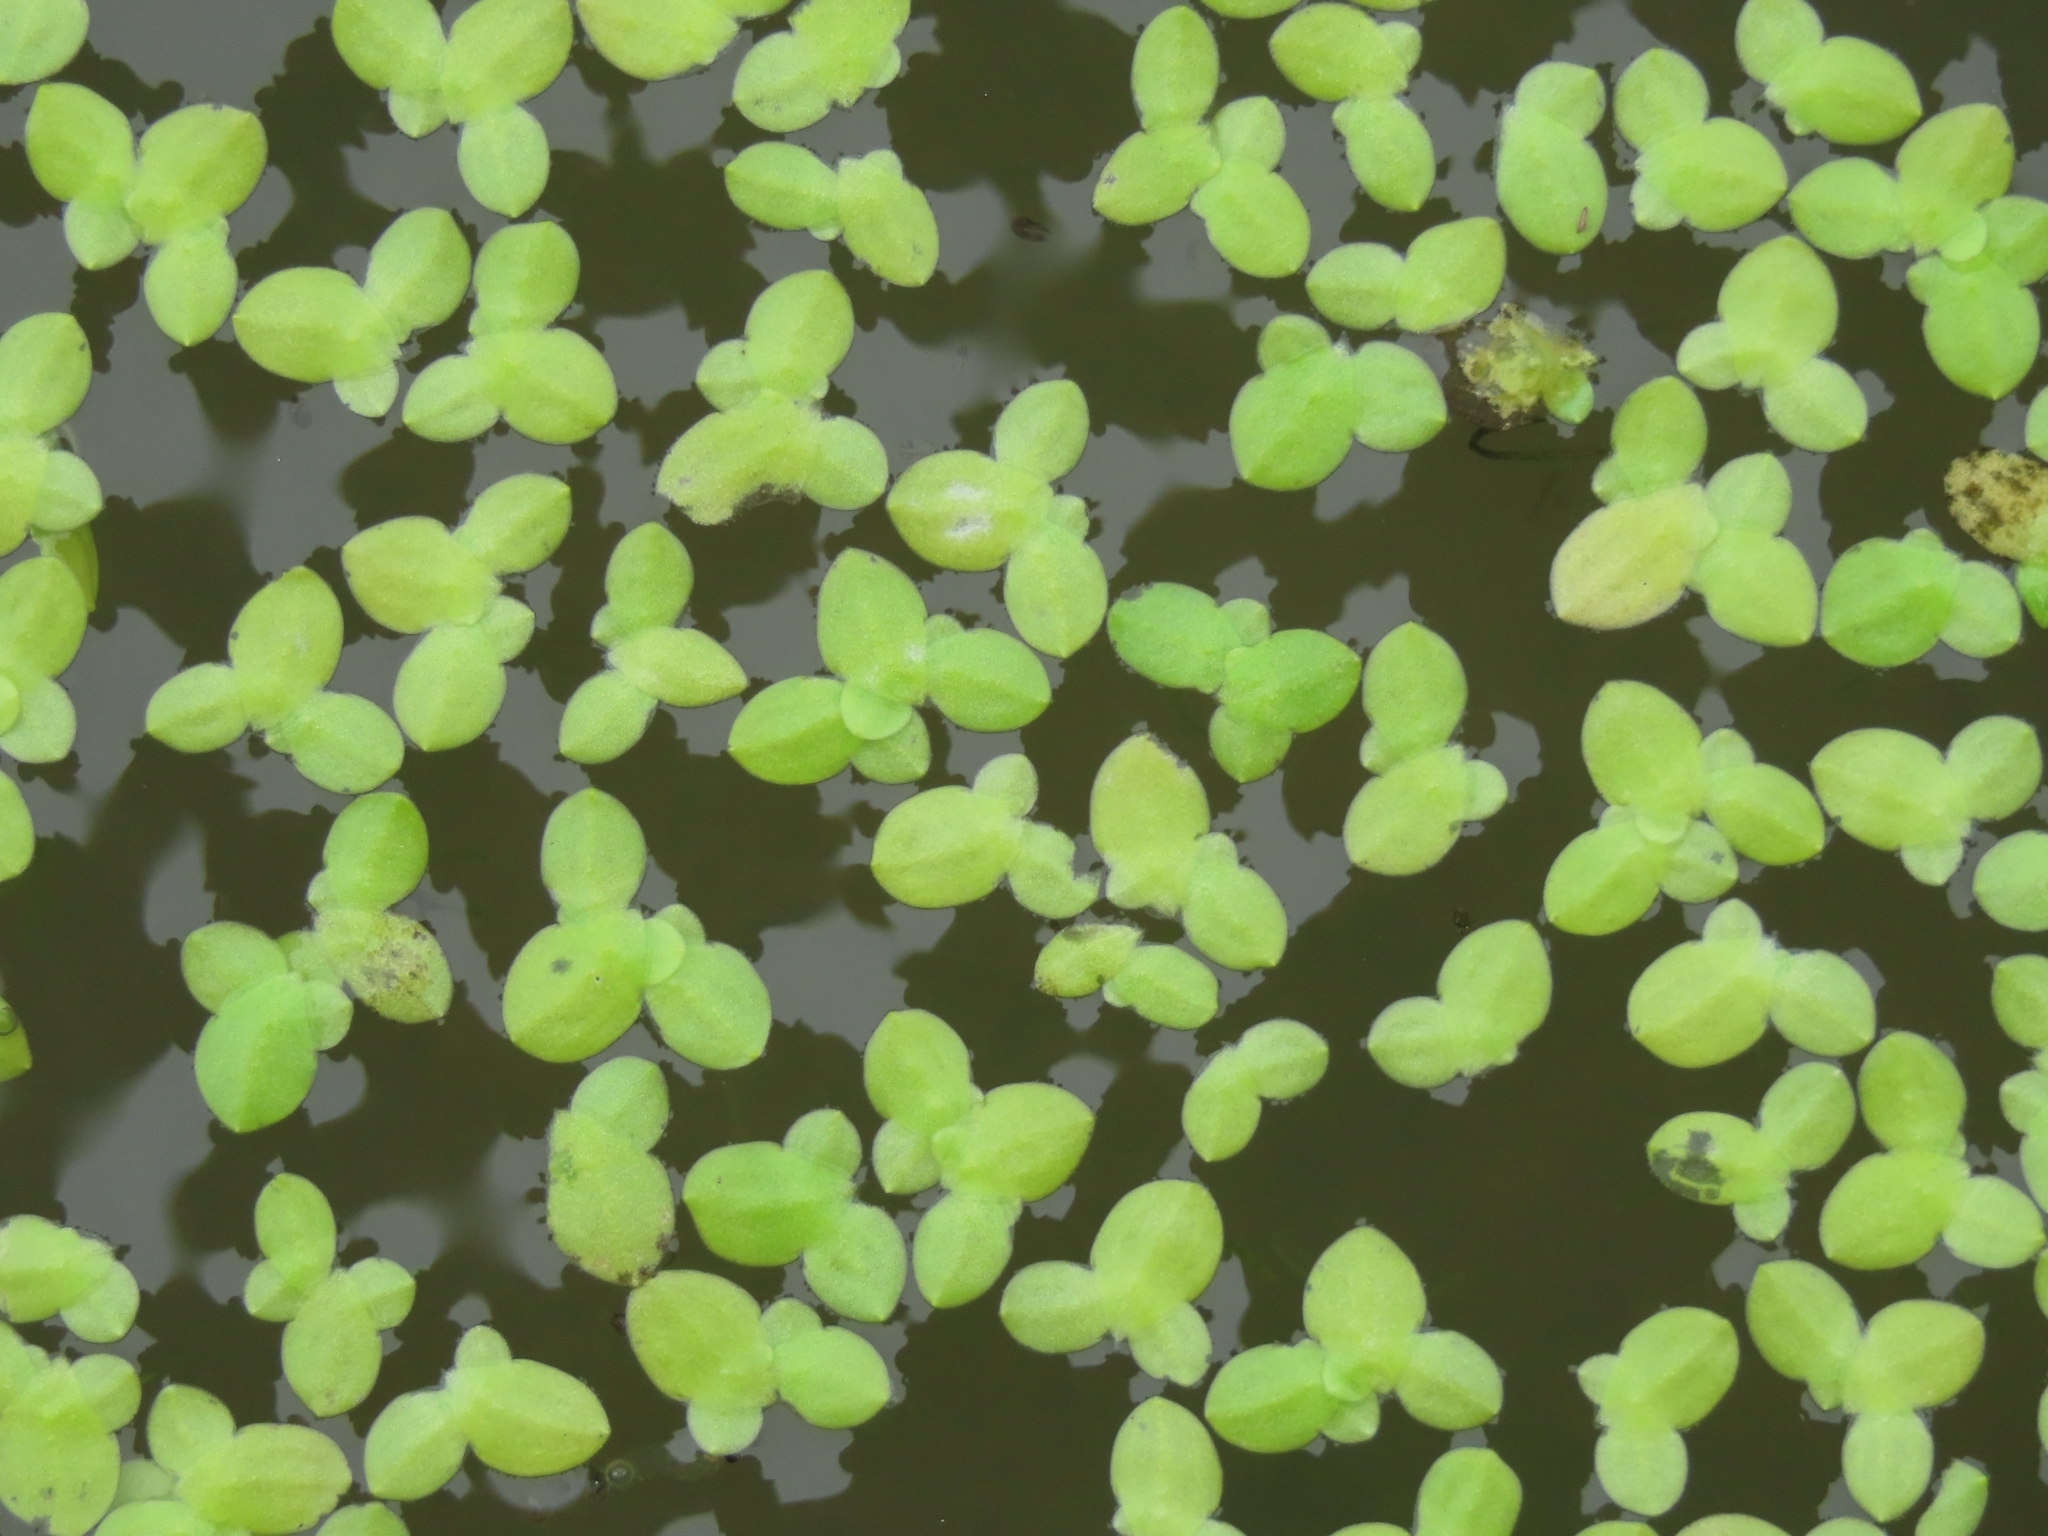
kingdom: Plantae
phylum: Tracheophyta
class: Liliopsida
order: Alismatales
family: Araceae
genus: Lemna
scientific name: Lemna aequinoctialis
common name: Duckweed
